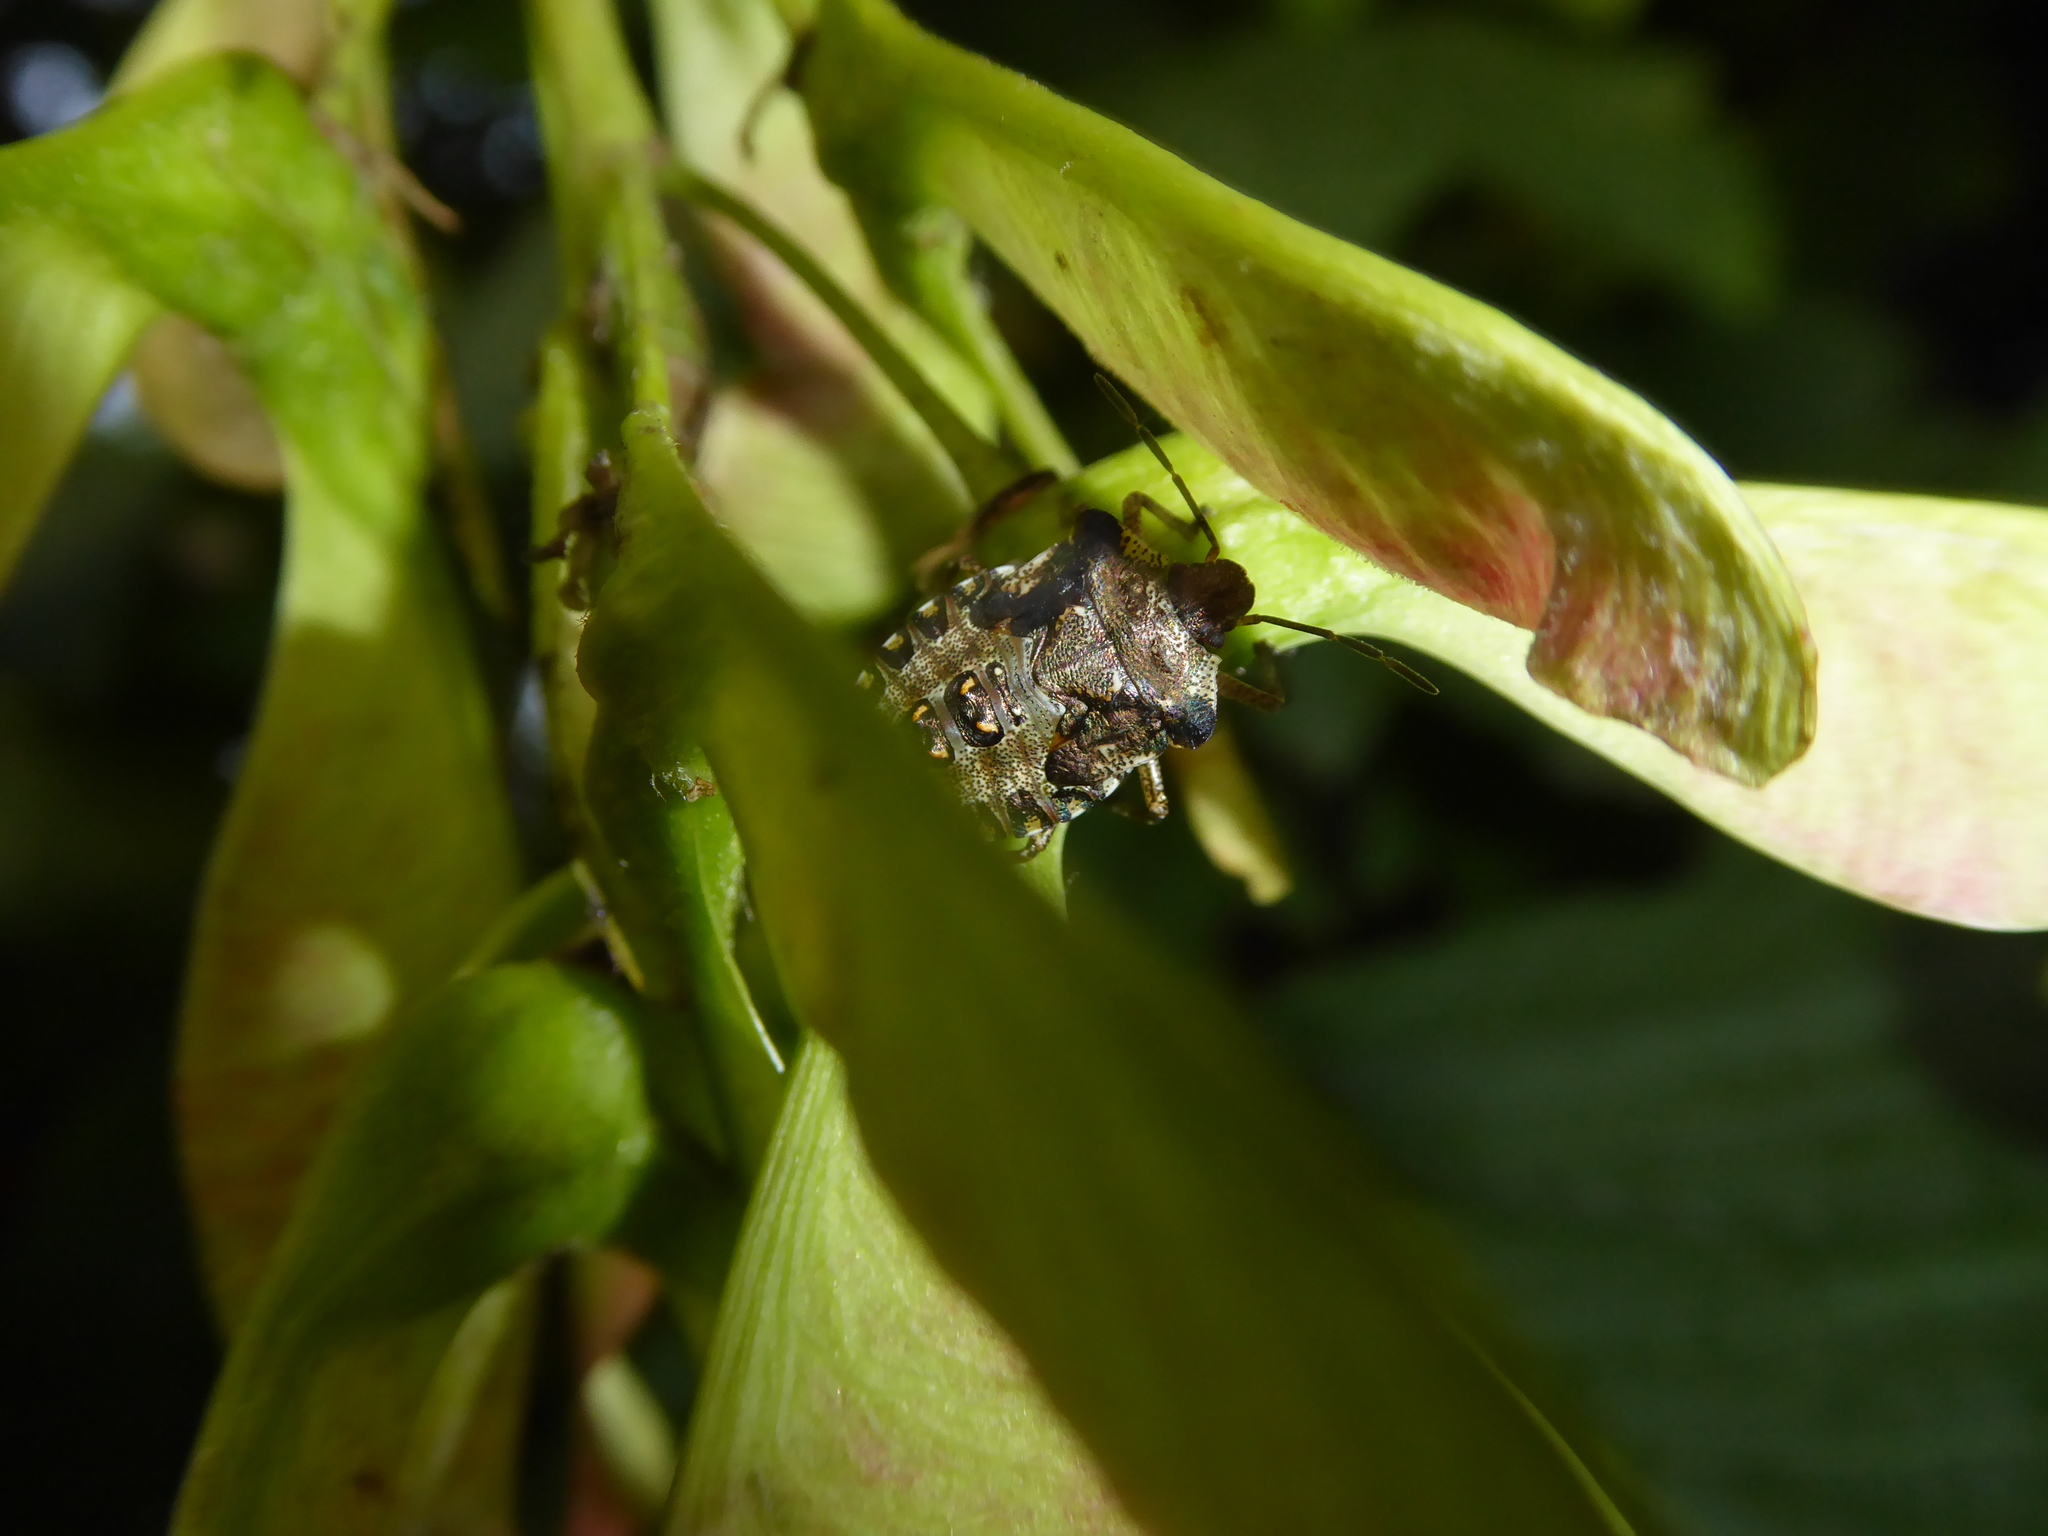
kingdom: Animalia
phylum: Arthropoda
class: Insecta
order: Hemiptera
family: Pentatomidae
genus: Pentatoma
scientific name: Pentatoma rufipes
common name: Forest bug
